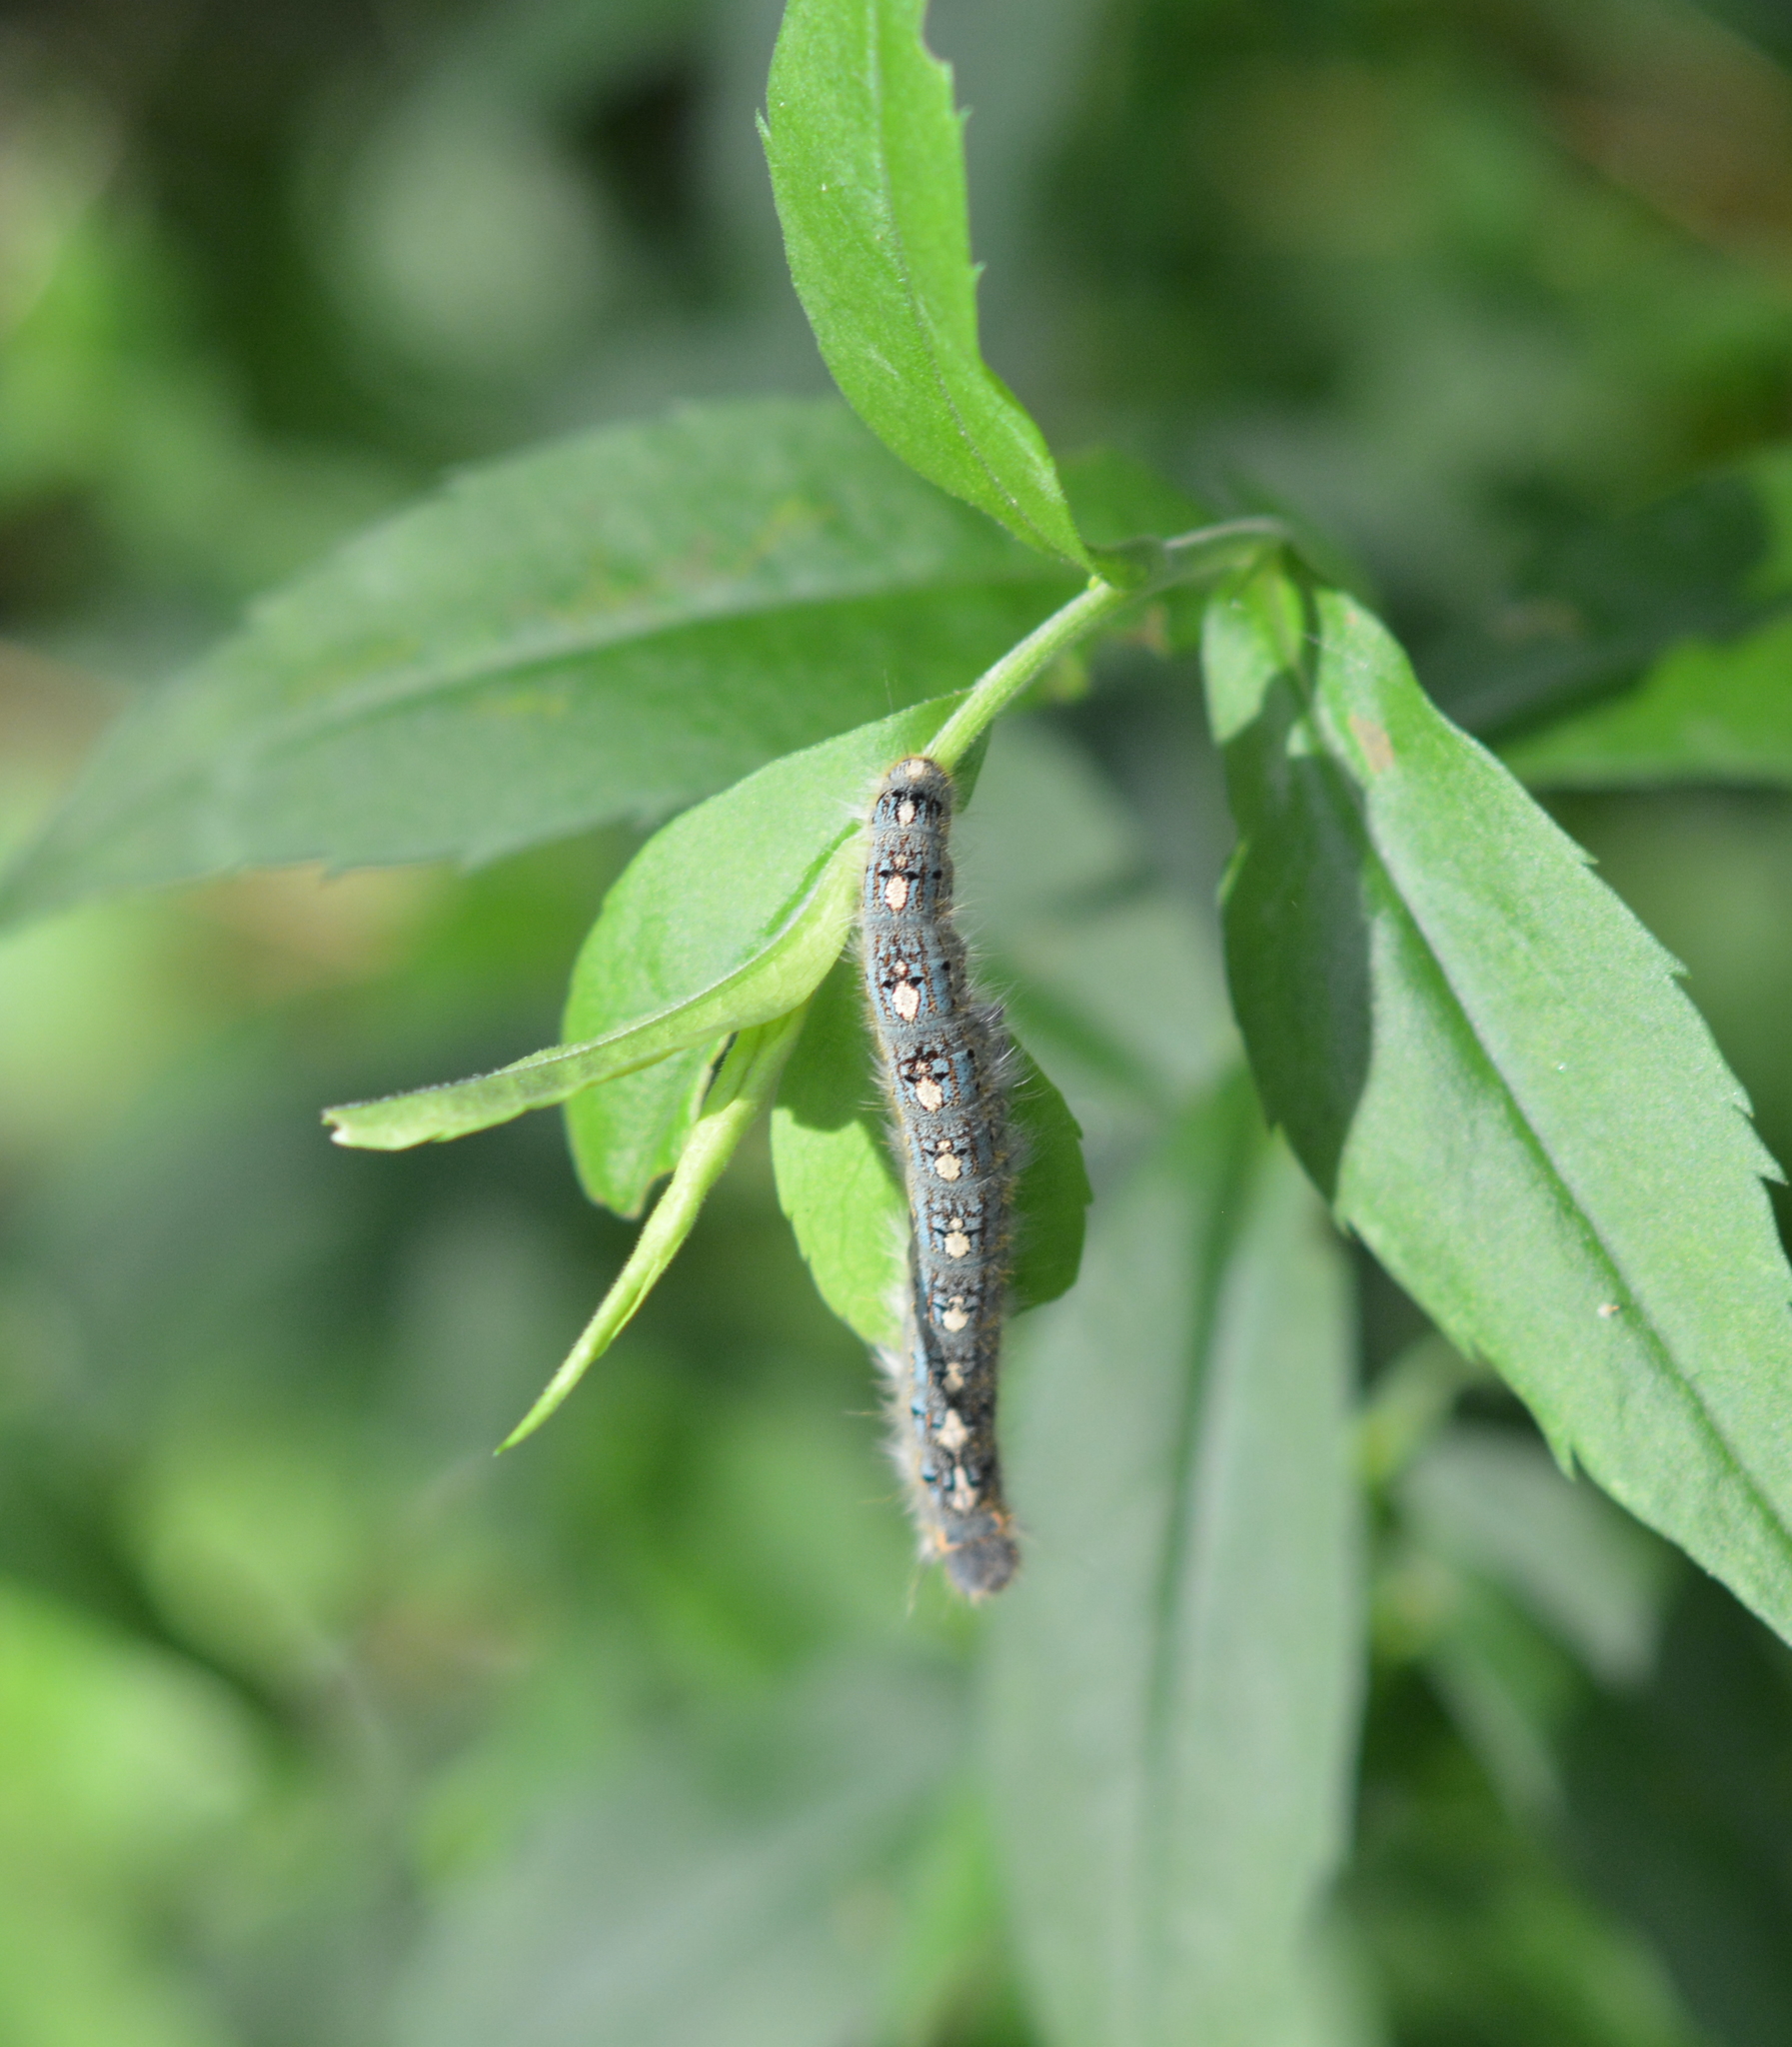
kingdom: Animalia
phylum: Arthropoda
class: Insecta
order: Lepidoptera
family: Lasiocampidae
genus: Malacosoma
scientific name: Malacosoma disstria
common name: Forest tent caterpillar
